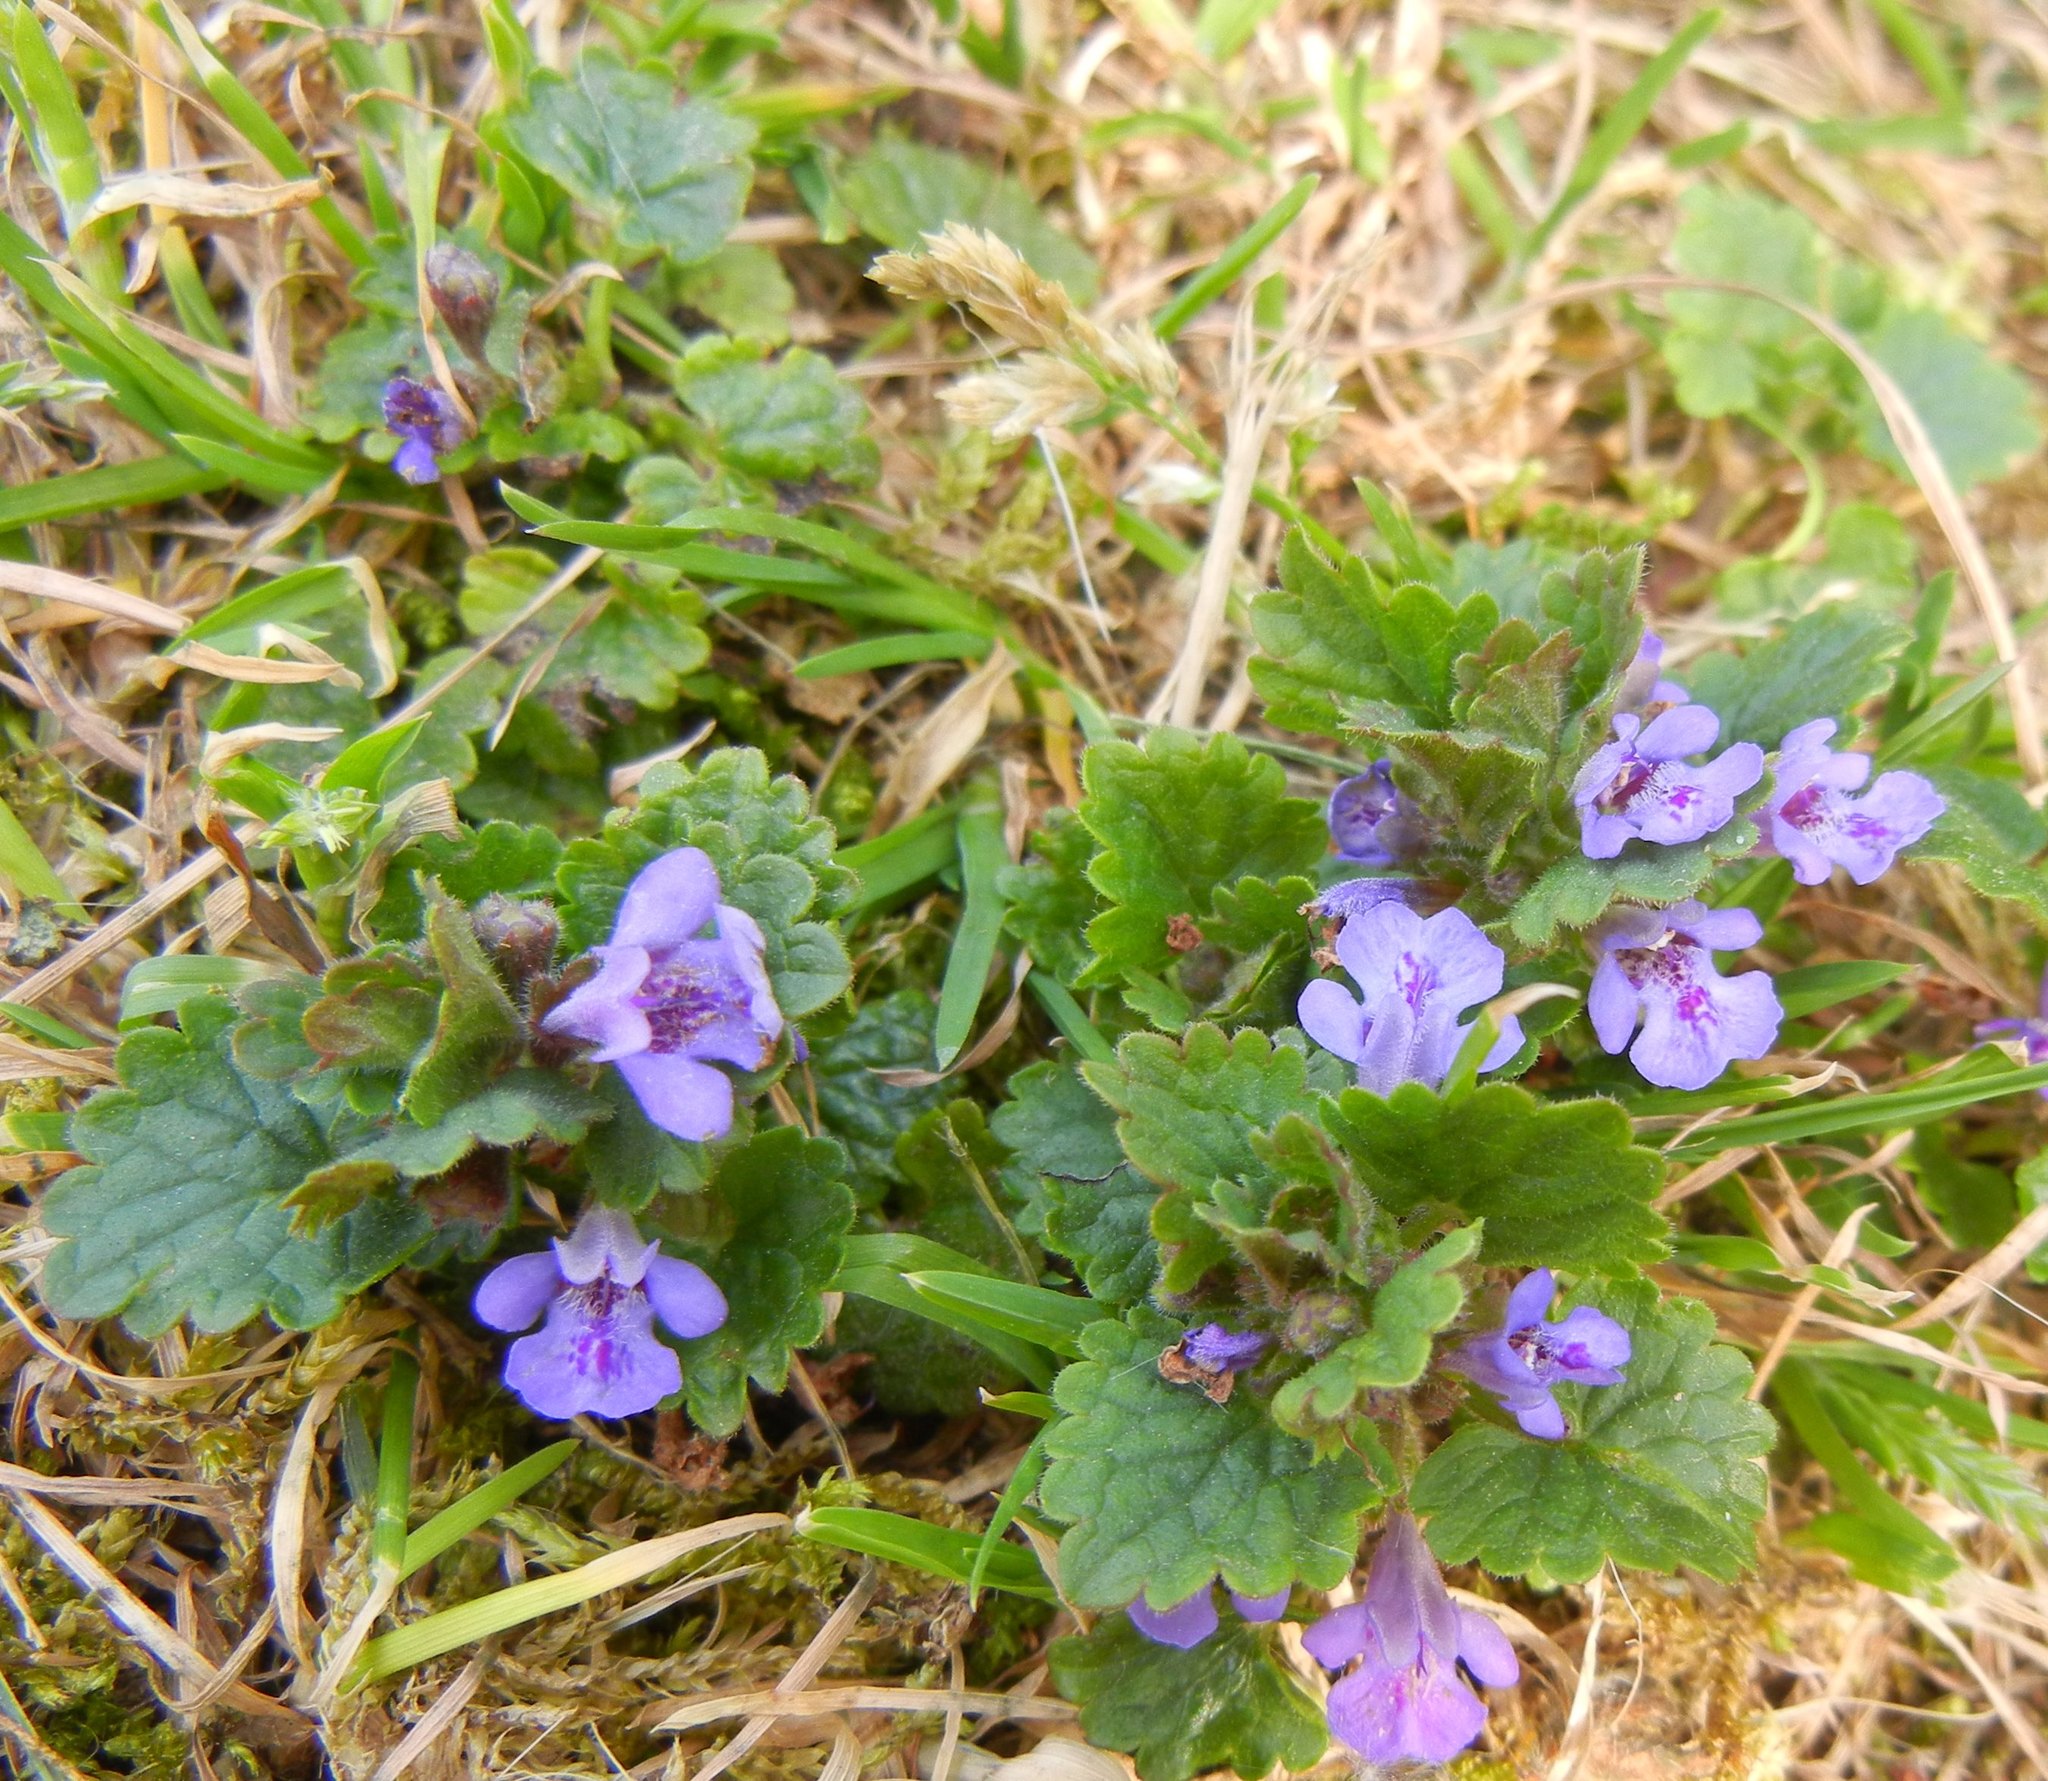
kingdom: Plantae
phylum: Tracheophyta
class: Magnoliopsida
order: Lamiales
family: Lamiaceae
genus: Glechoma
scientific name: Glechoma hederacea
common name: Ground ivy
